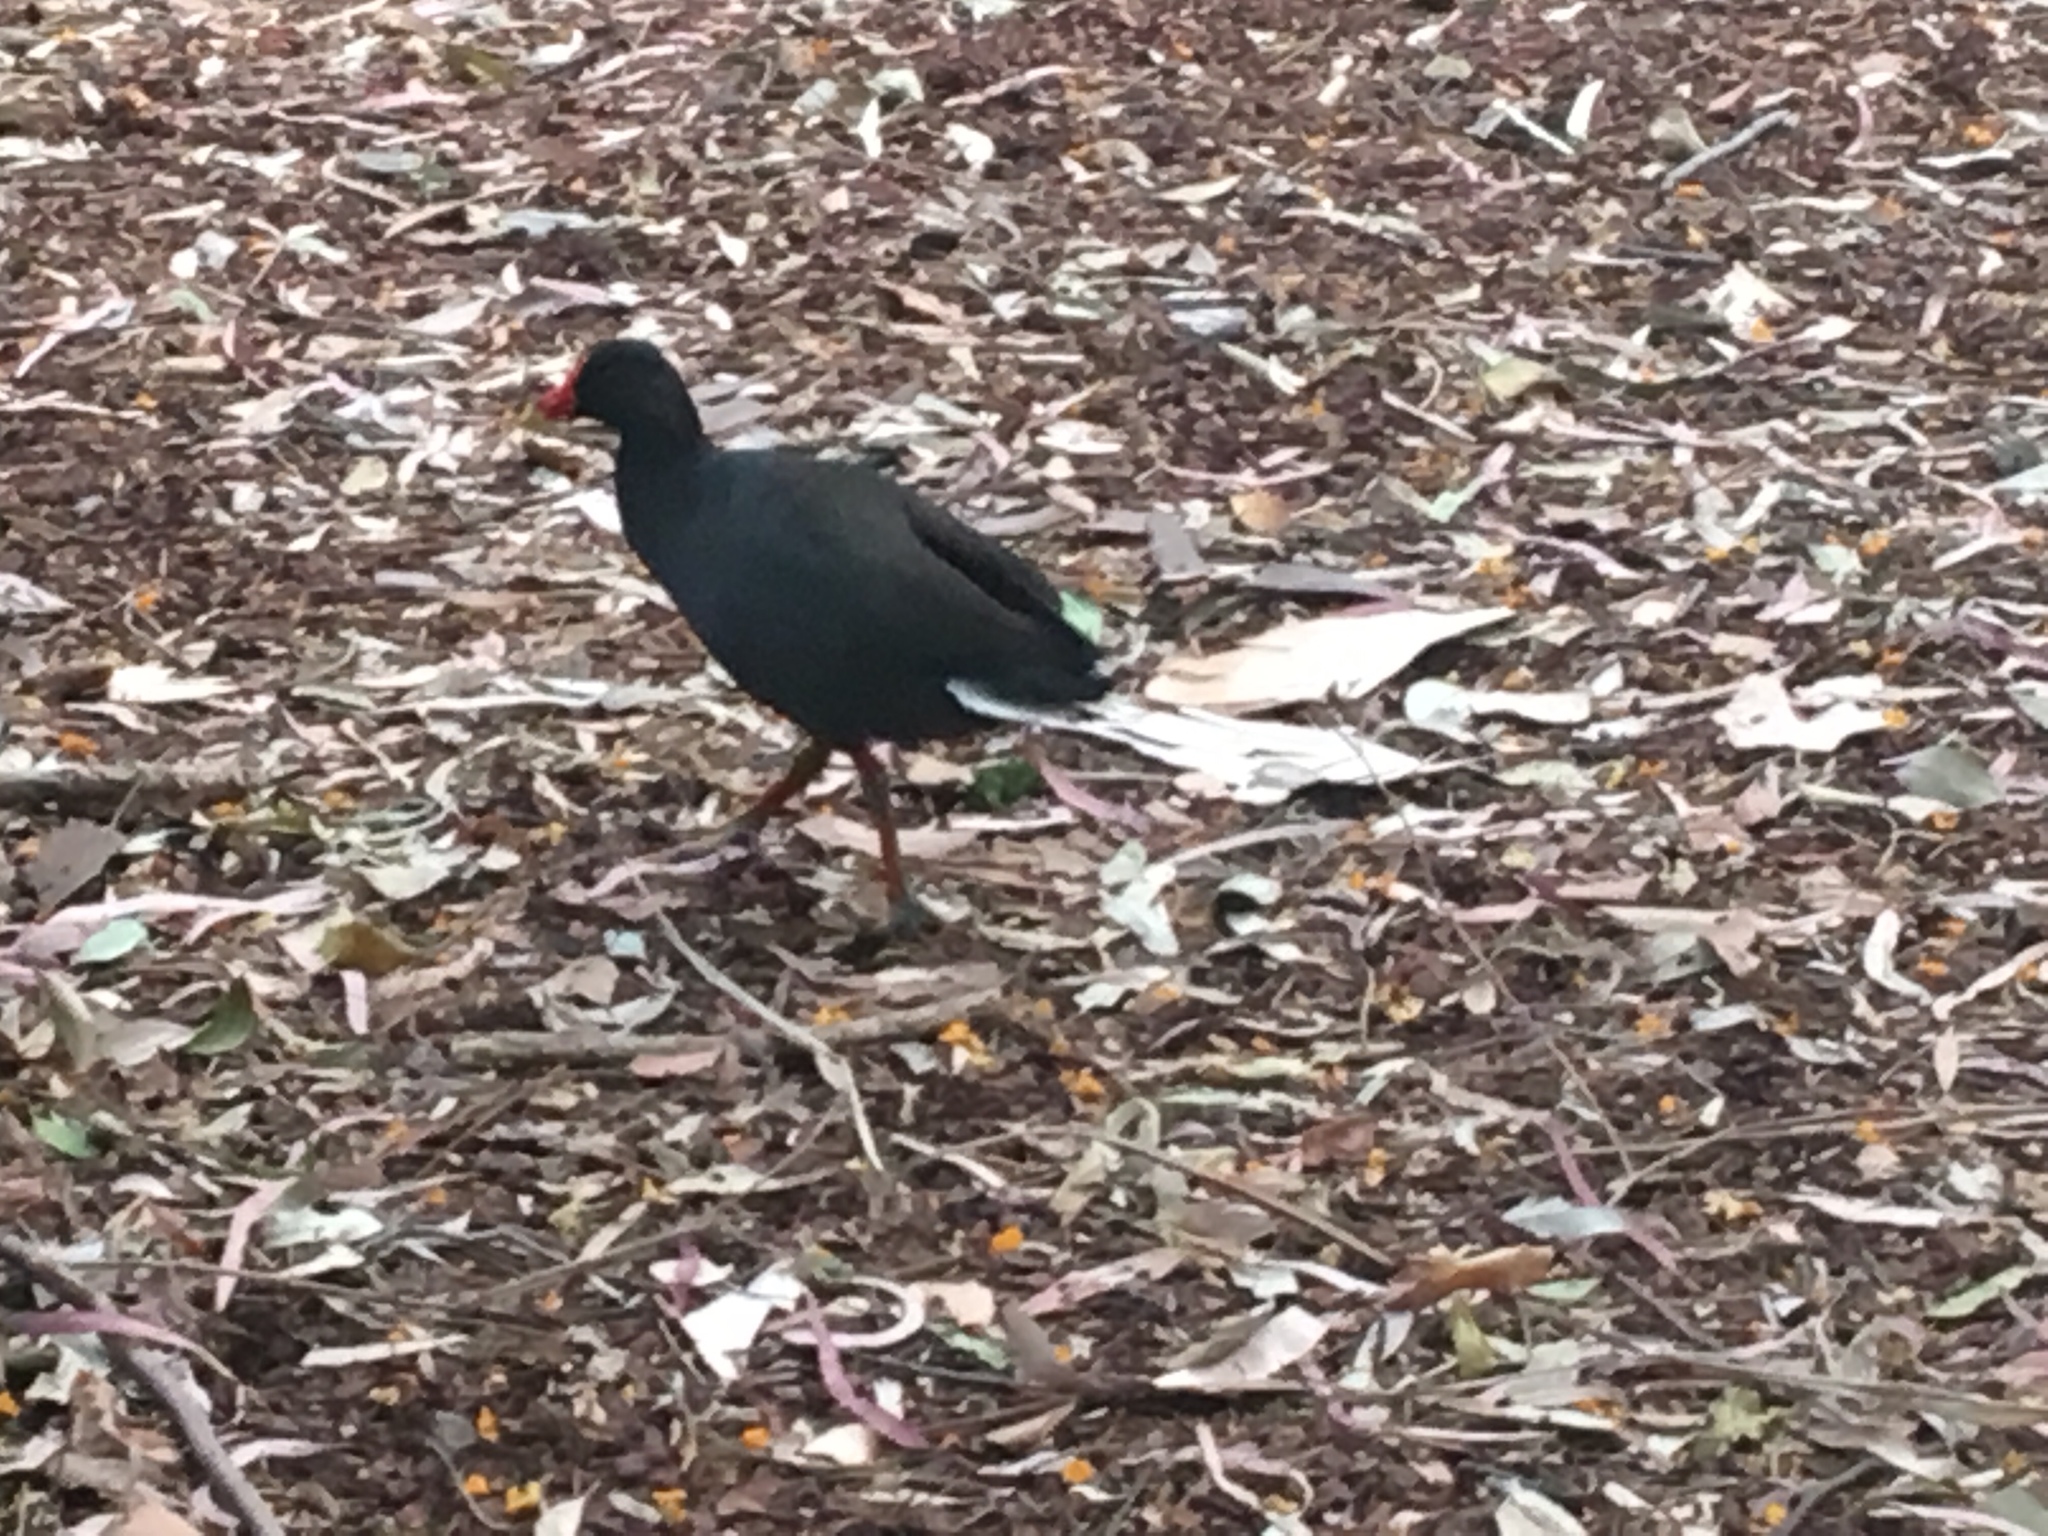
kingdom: Animalia
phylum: Chordata
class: Aves
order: Gruiformes
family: Rallidae
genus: Gallinula
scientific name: Gallinula tenebrosa
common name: Dusky moorhen
